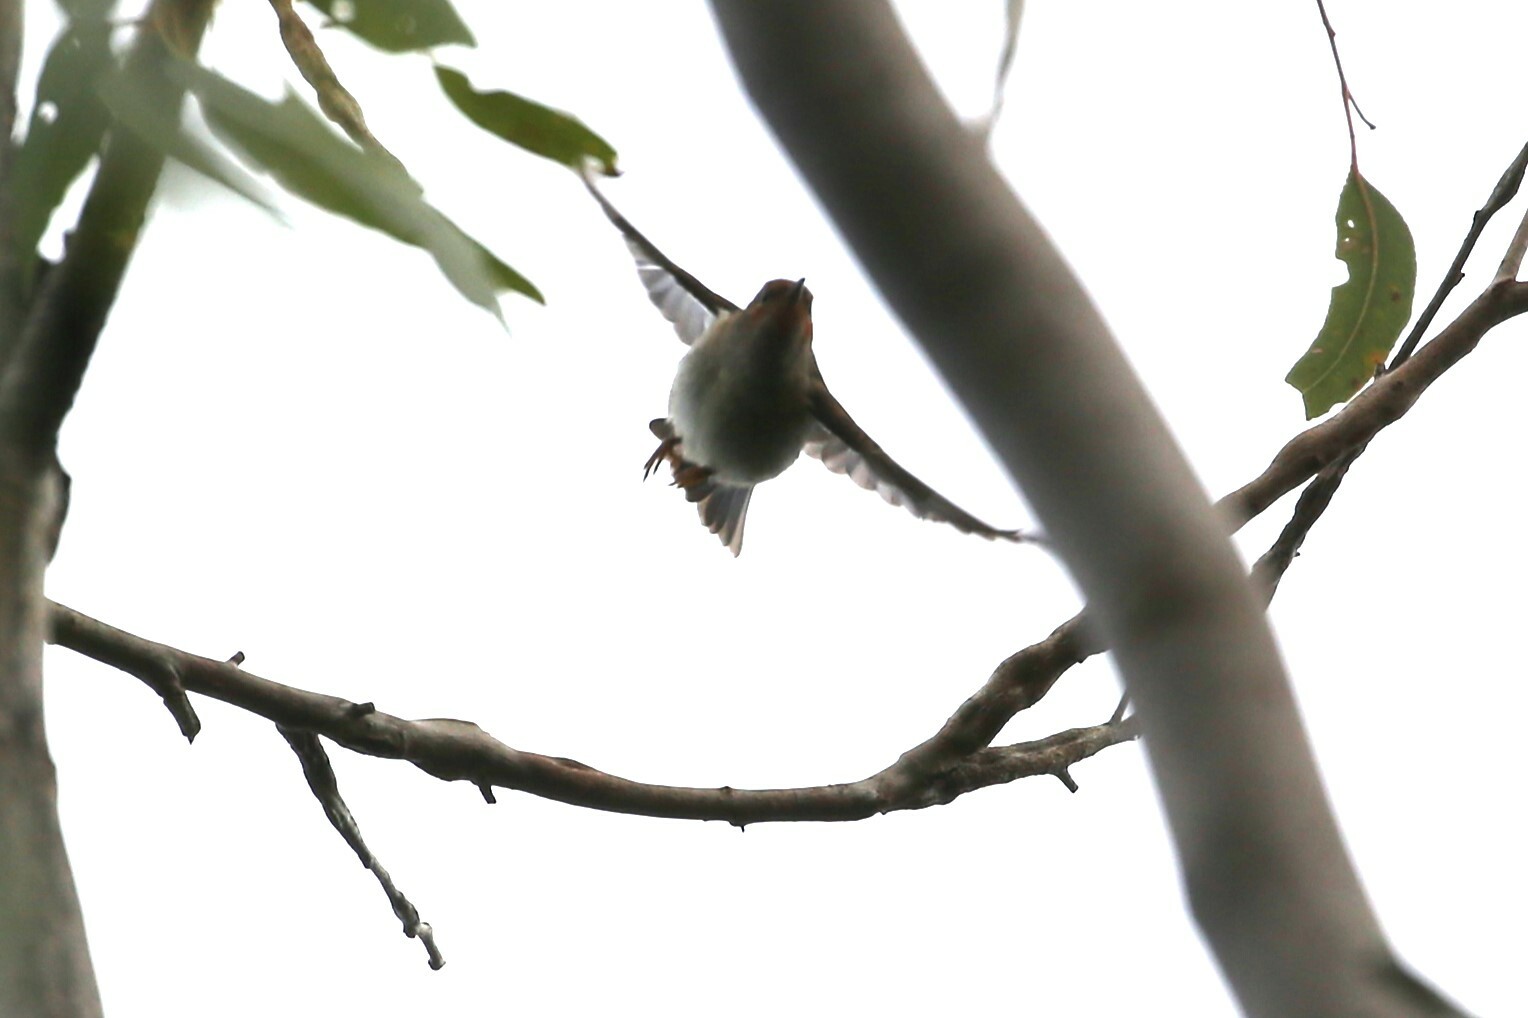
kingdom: Animalia
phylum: Chordata
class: Aves
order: Passeriformes
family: Meliphagidae
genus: Myzomela
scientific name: Myzomela sanguinolenta
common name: Scarlet myzomela
